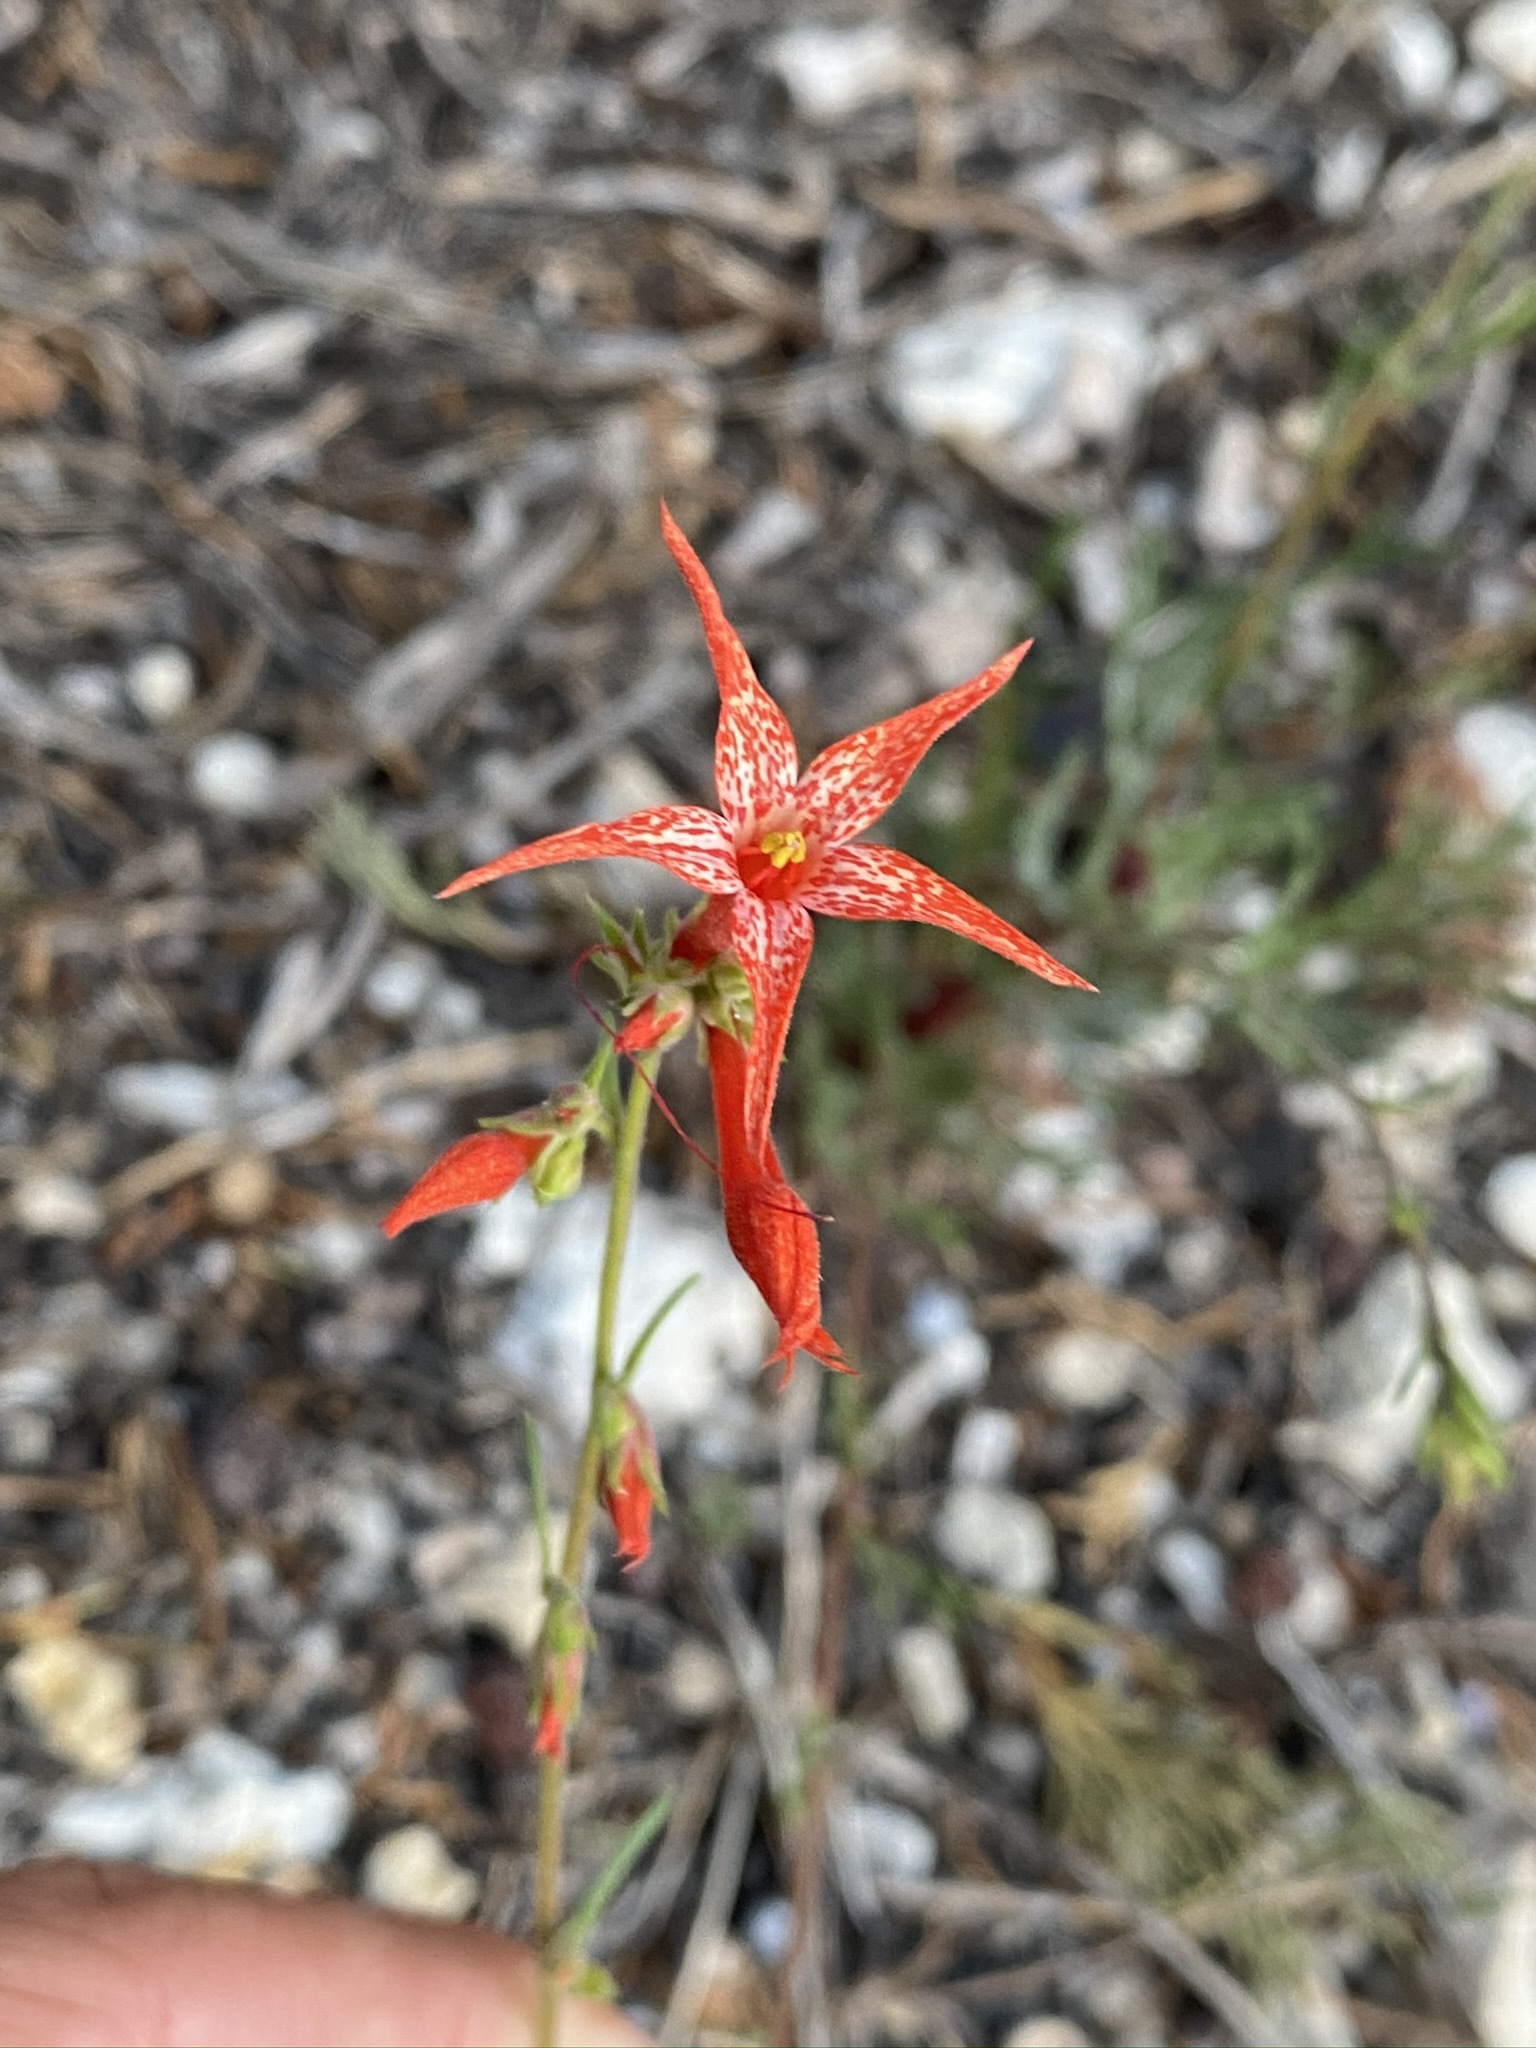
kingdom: Plantae
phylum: Tracheophyta
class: Magnoliopsida
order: Ericales
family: Polemoniaceae
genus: Ipomopsis
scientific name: Ipomopsis aggregata
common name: Scarlet gilia
